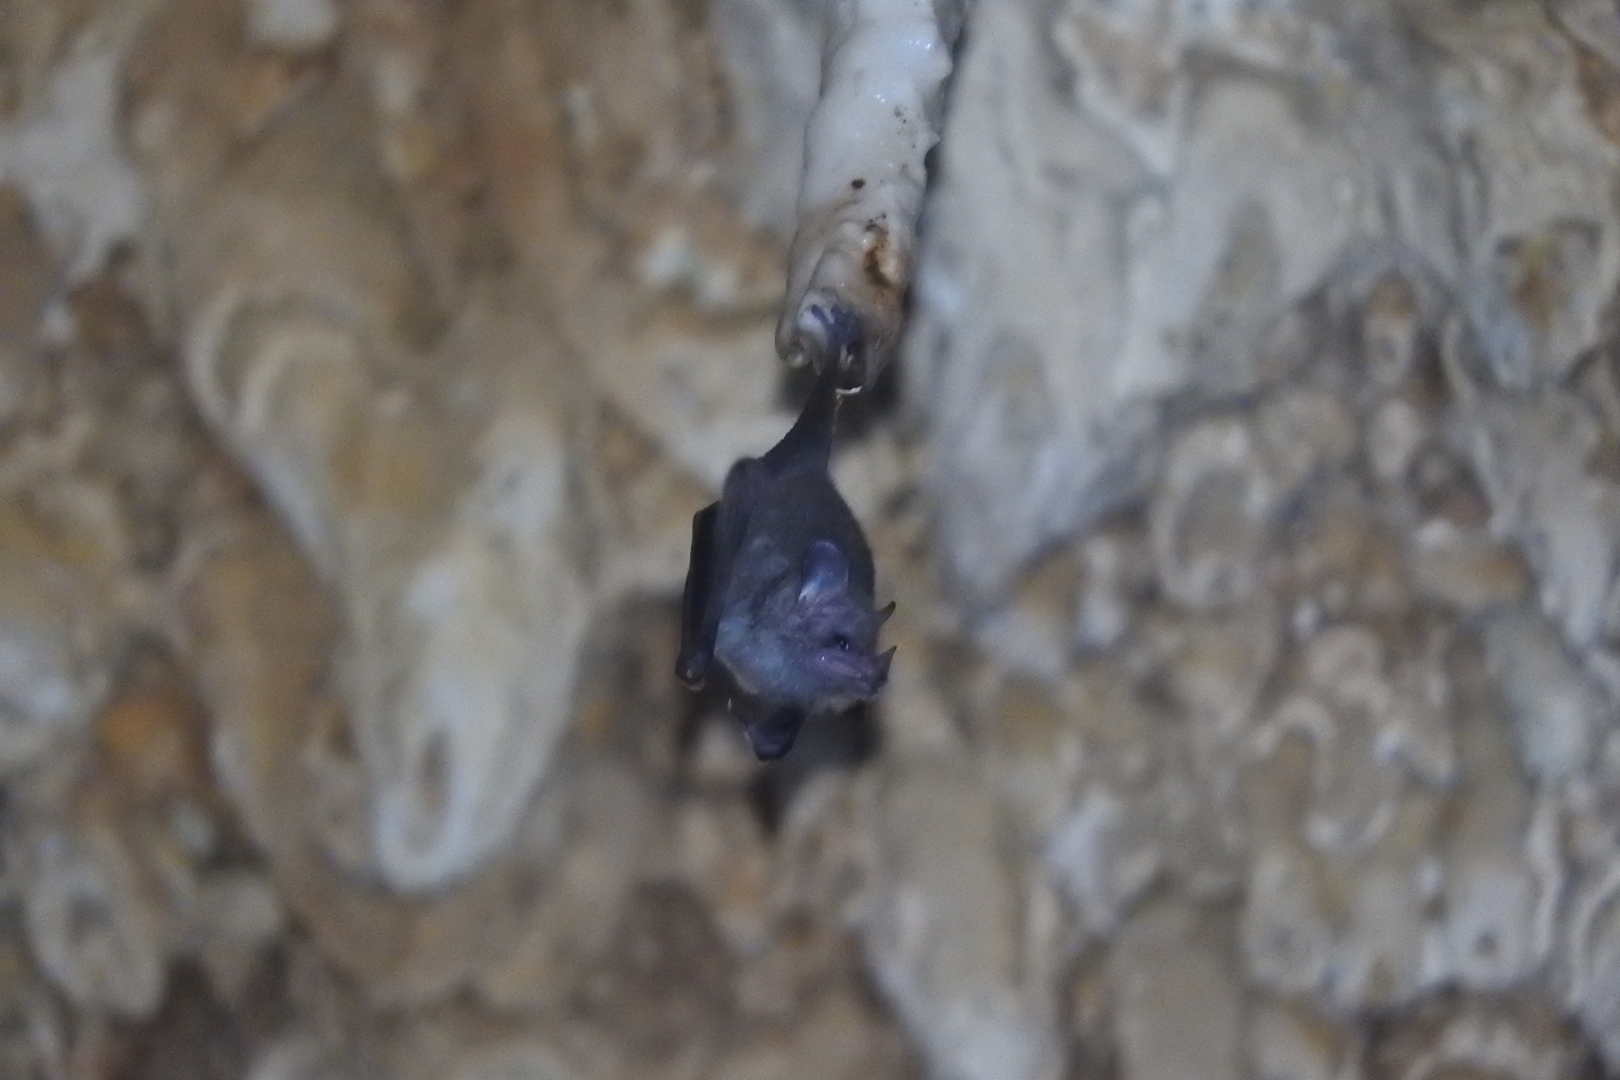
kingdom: Animalia
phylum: Chordata
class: Mammalia
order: Chiroptera
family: Phyllostomidae
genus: Glossophaga
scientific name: Glossophaga soricina
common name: Pallas's long-tongued bat
